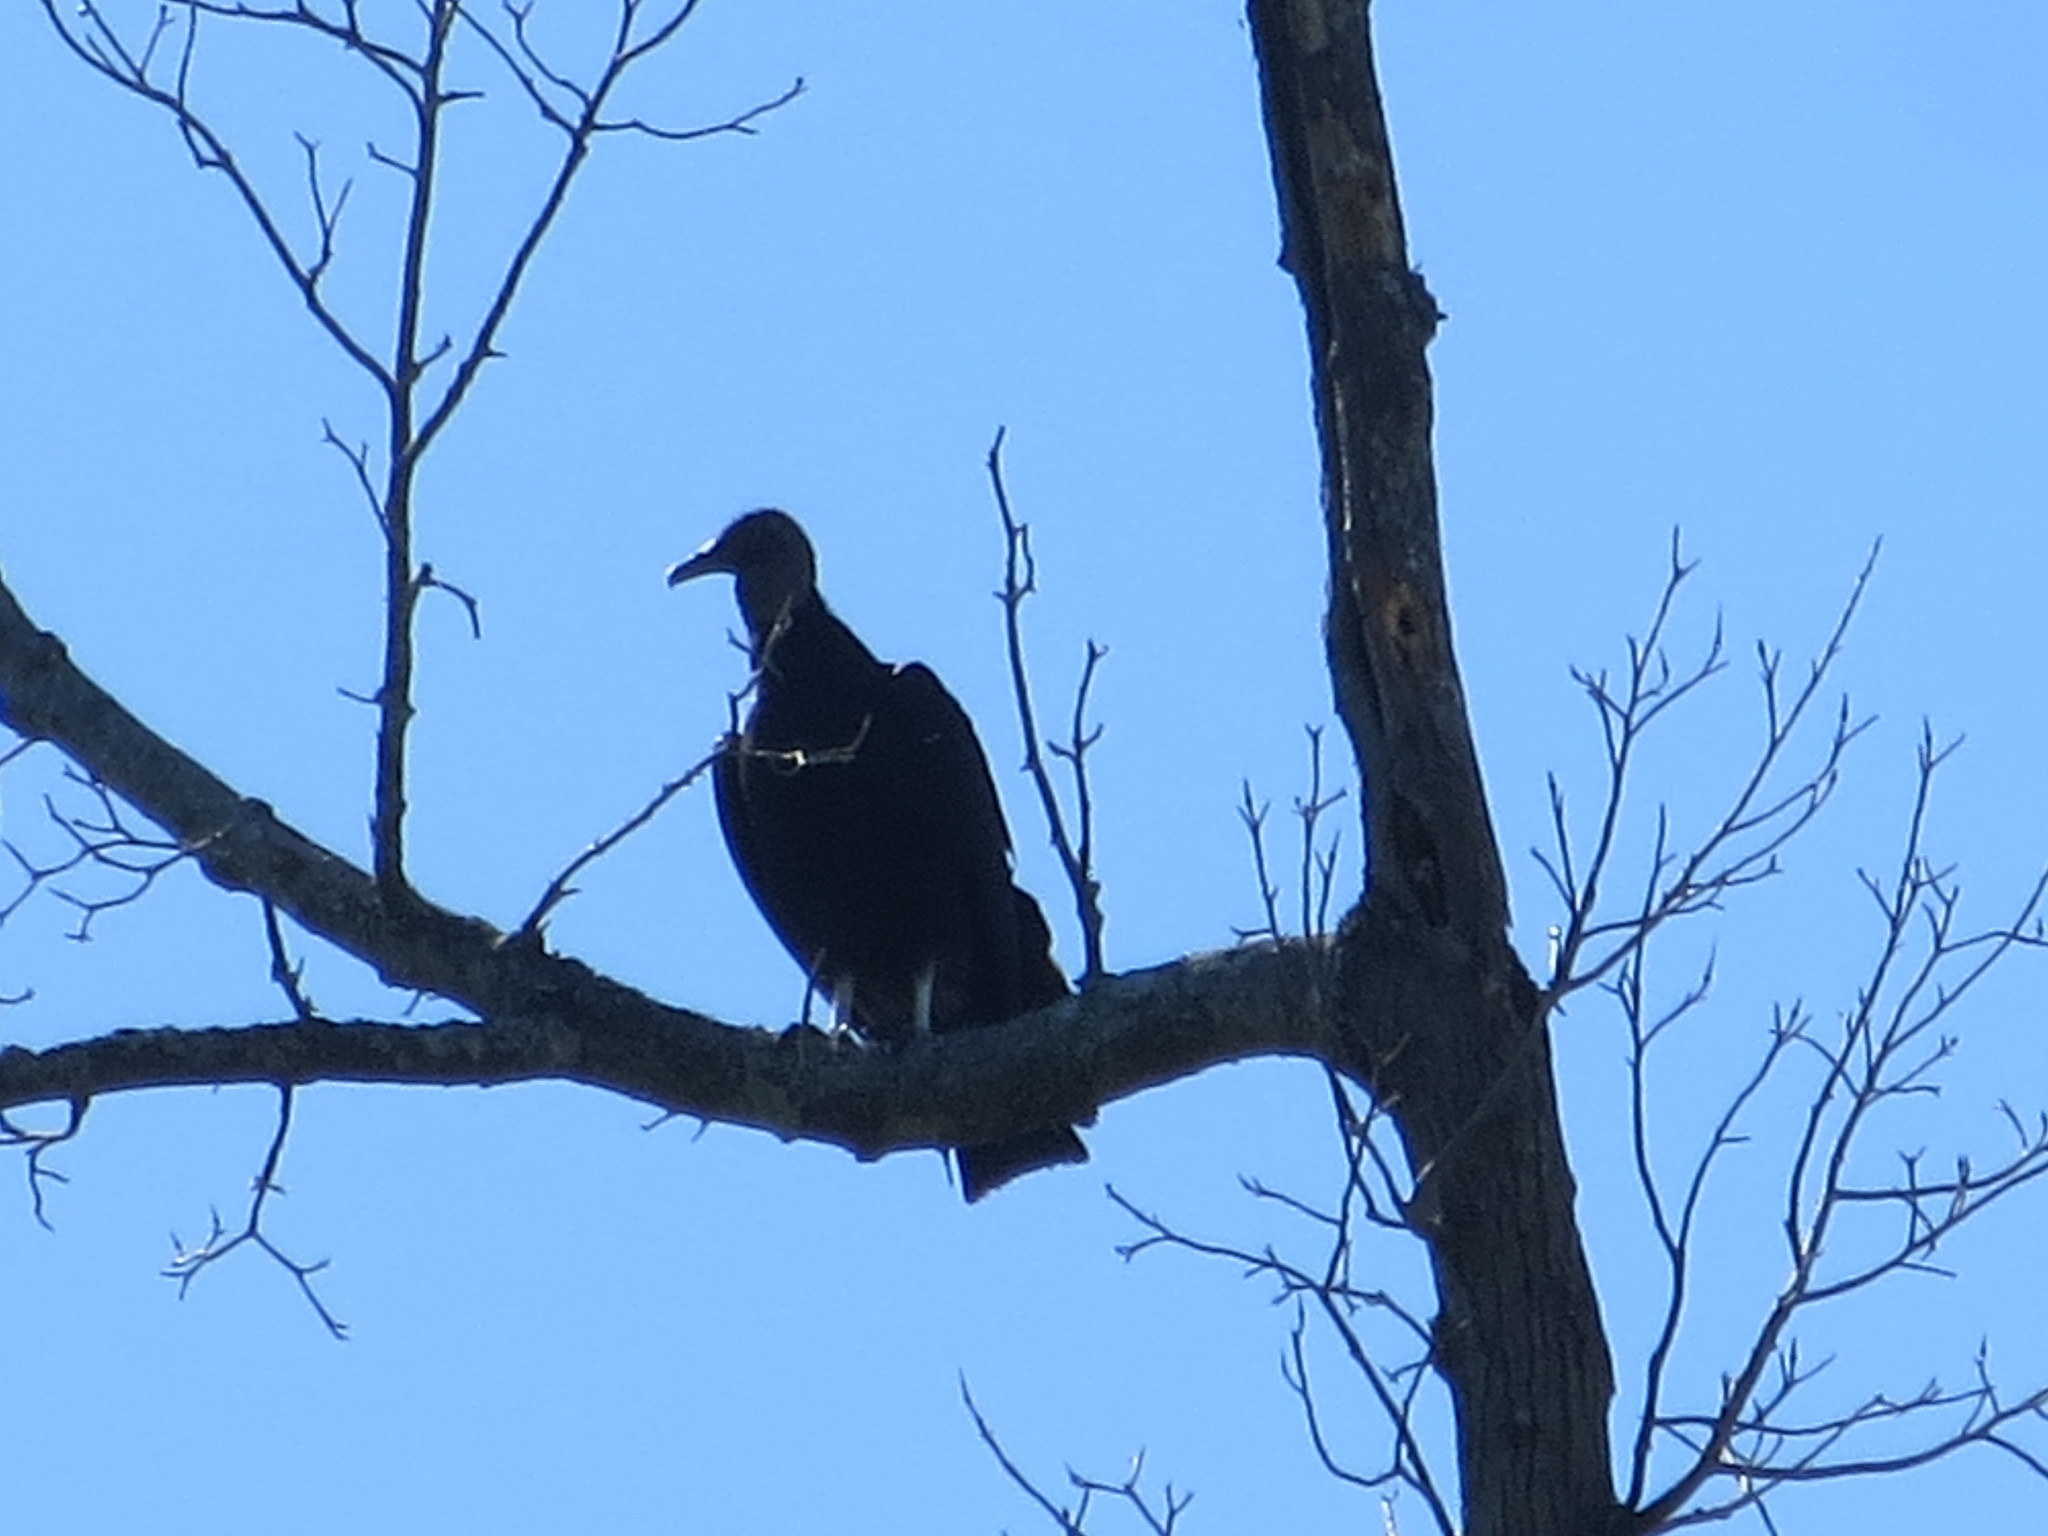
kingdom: Animalia
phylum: Chordata
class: Aves
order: Accipitriformes
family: Cathartidae
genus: Coragyps
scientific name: Coragyps atratus
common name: Black vulture
